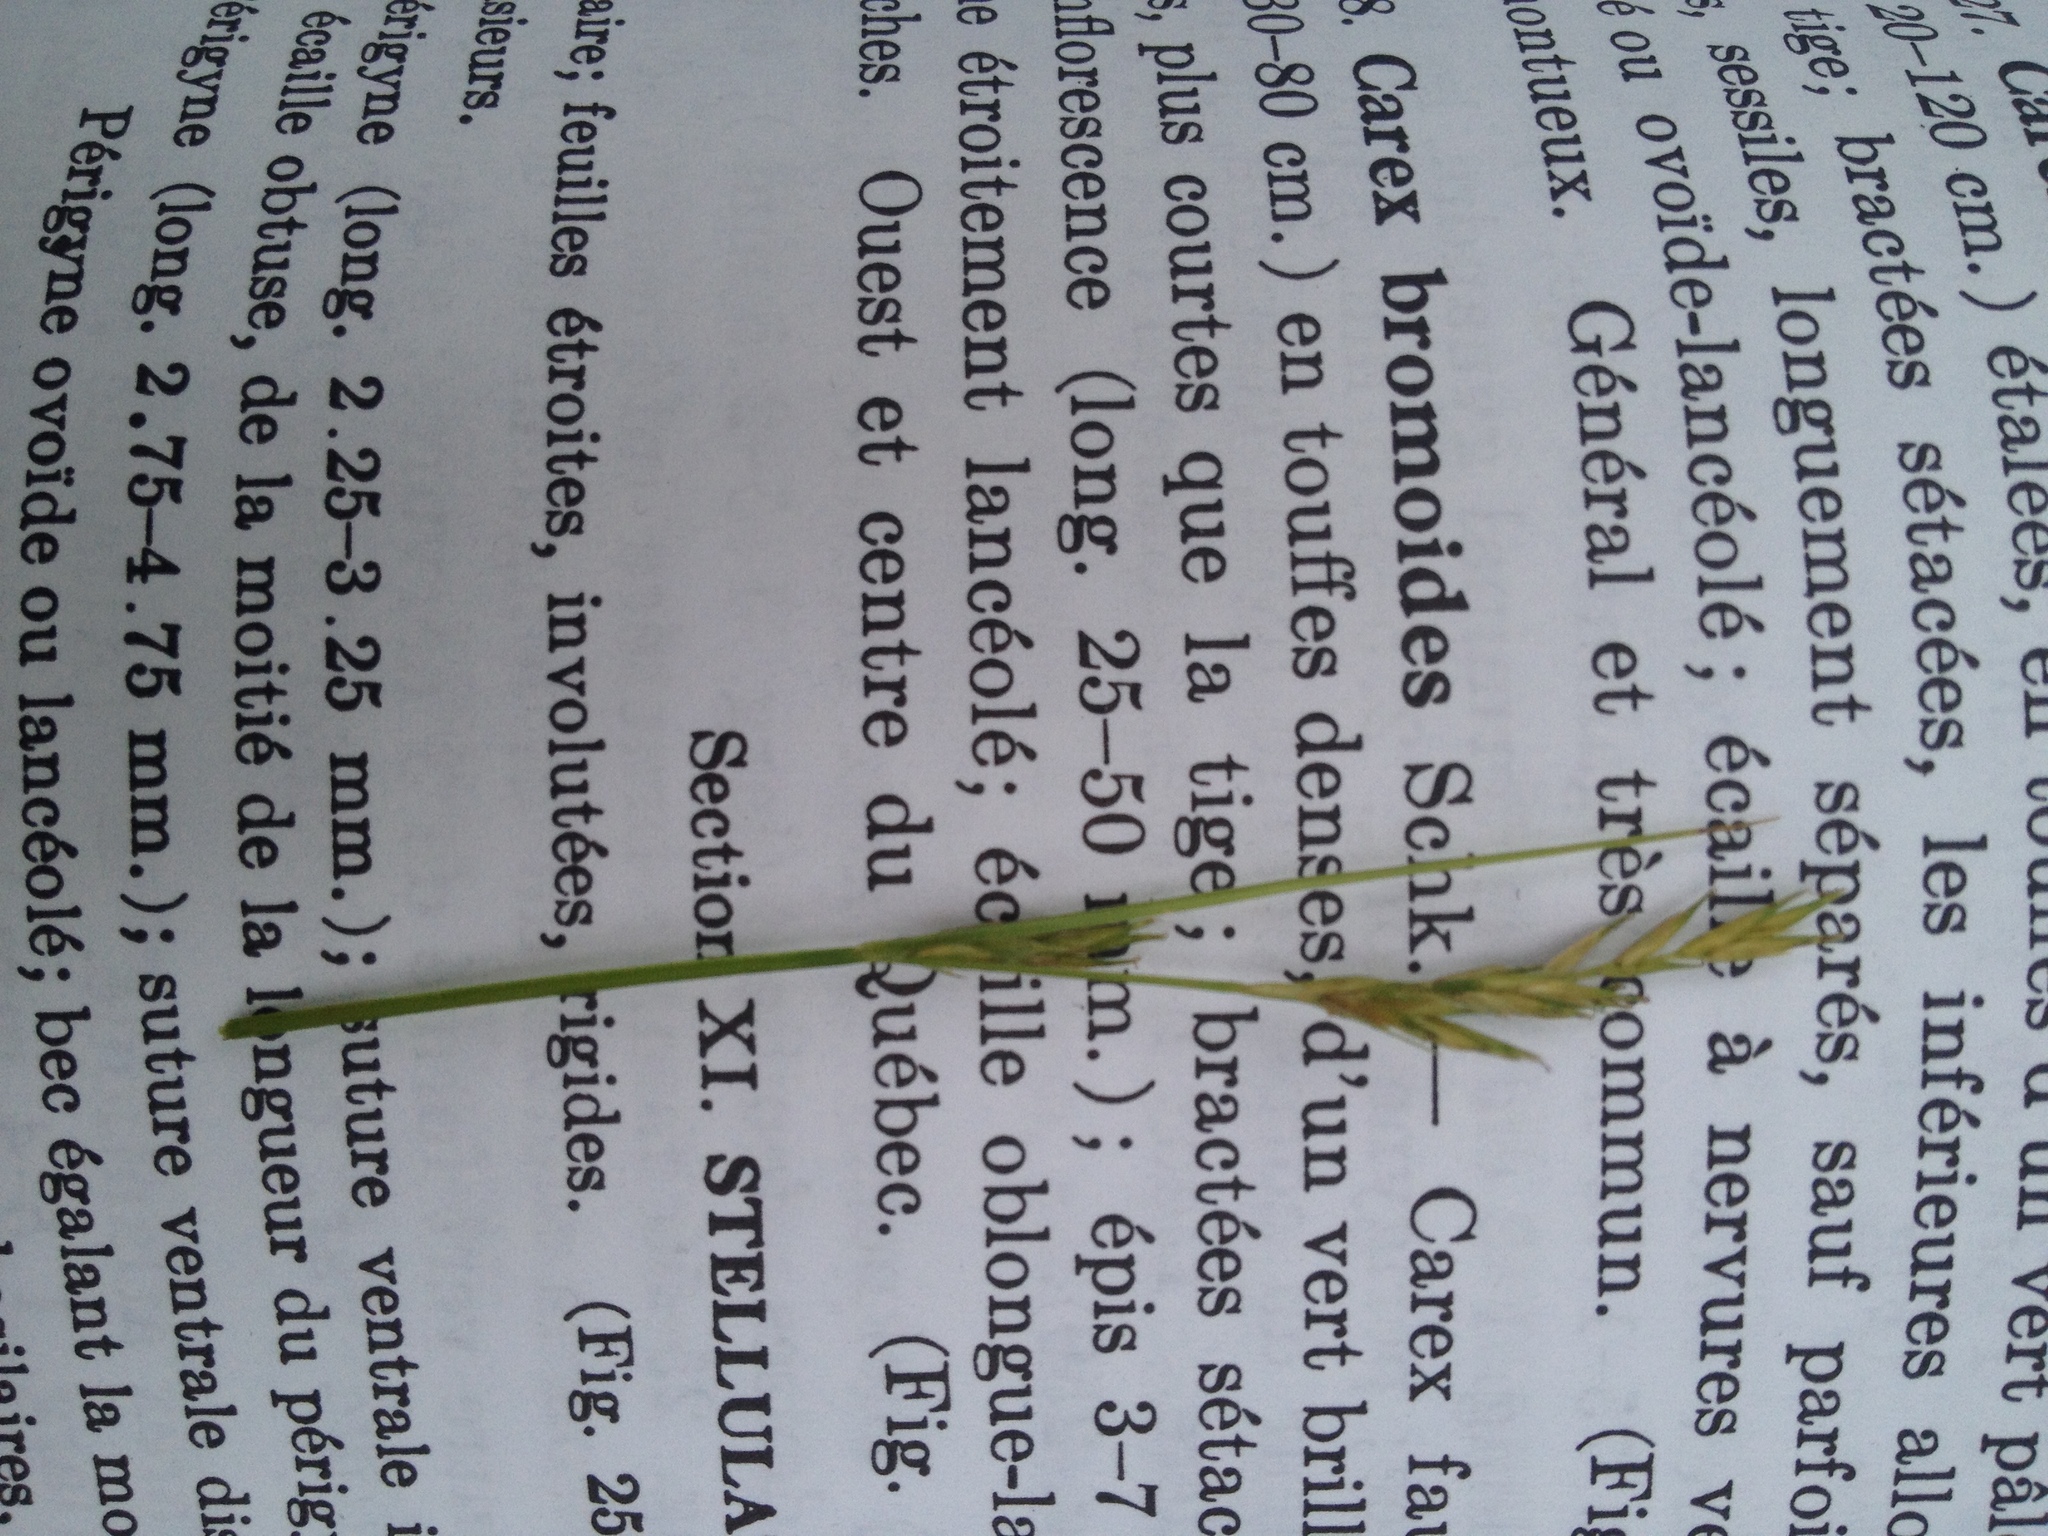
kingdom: Plantae
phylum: Tracheophyta
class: Liliopsida
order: Poales
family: Cyperaceae
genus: Carex
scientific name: Carex bromoides
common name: Brome hummock sedge
